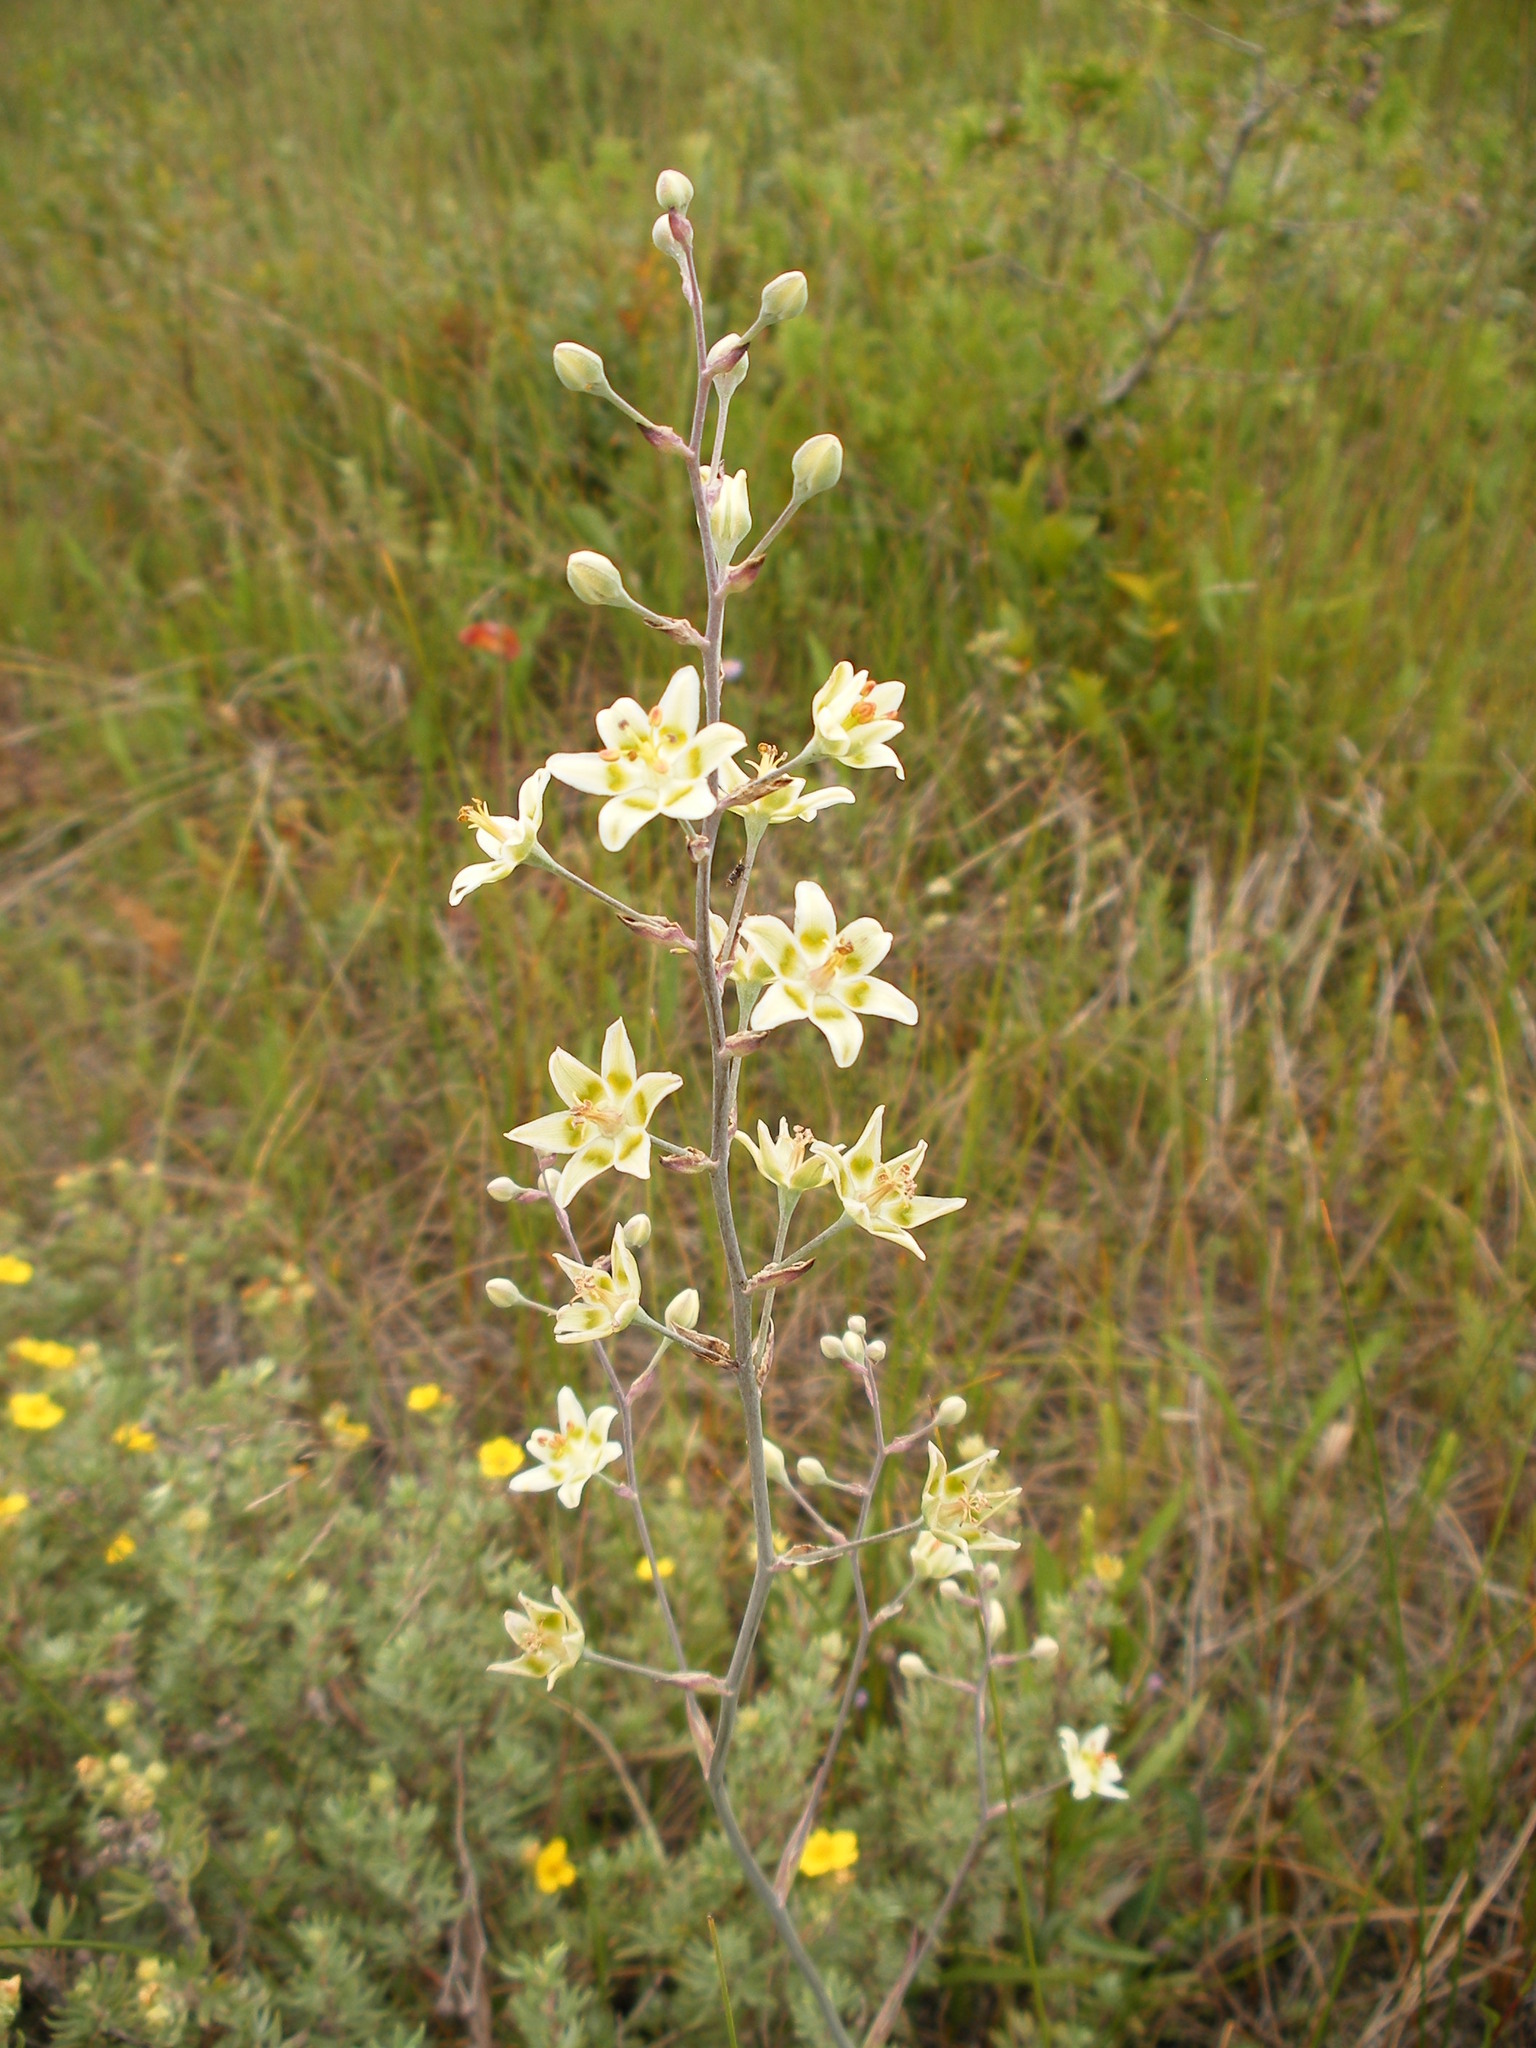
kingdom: Plantae
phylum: Tracheophyta
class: Liliopsida
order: Liliales
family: Melanthiaceae
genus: Anticlea
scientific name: Anticlea elegans
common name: Mountain death camas
